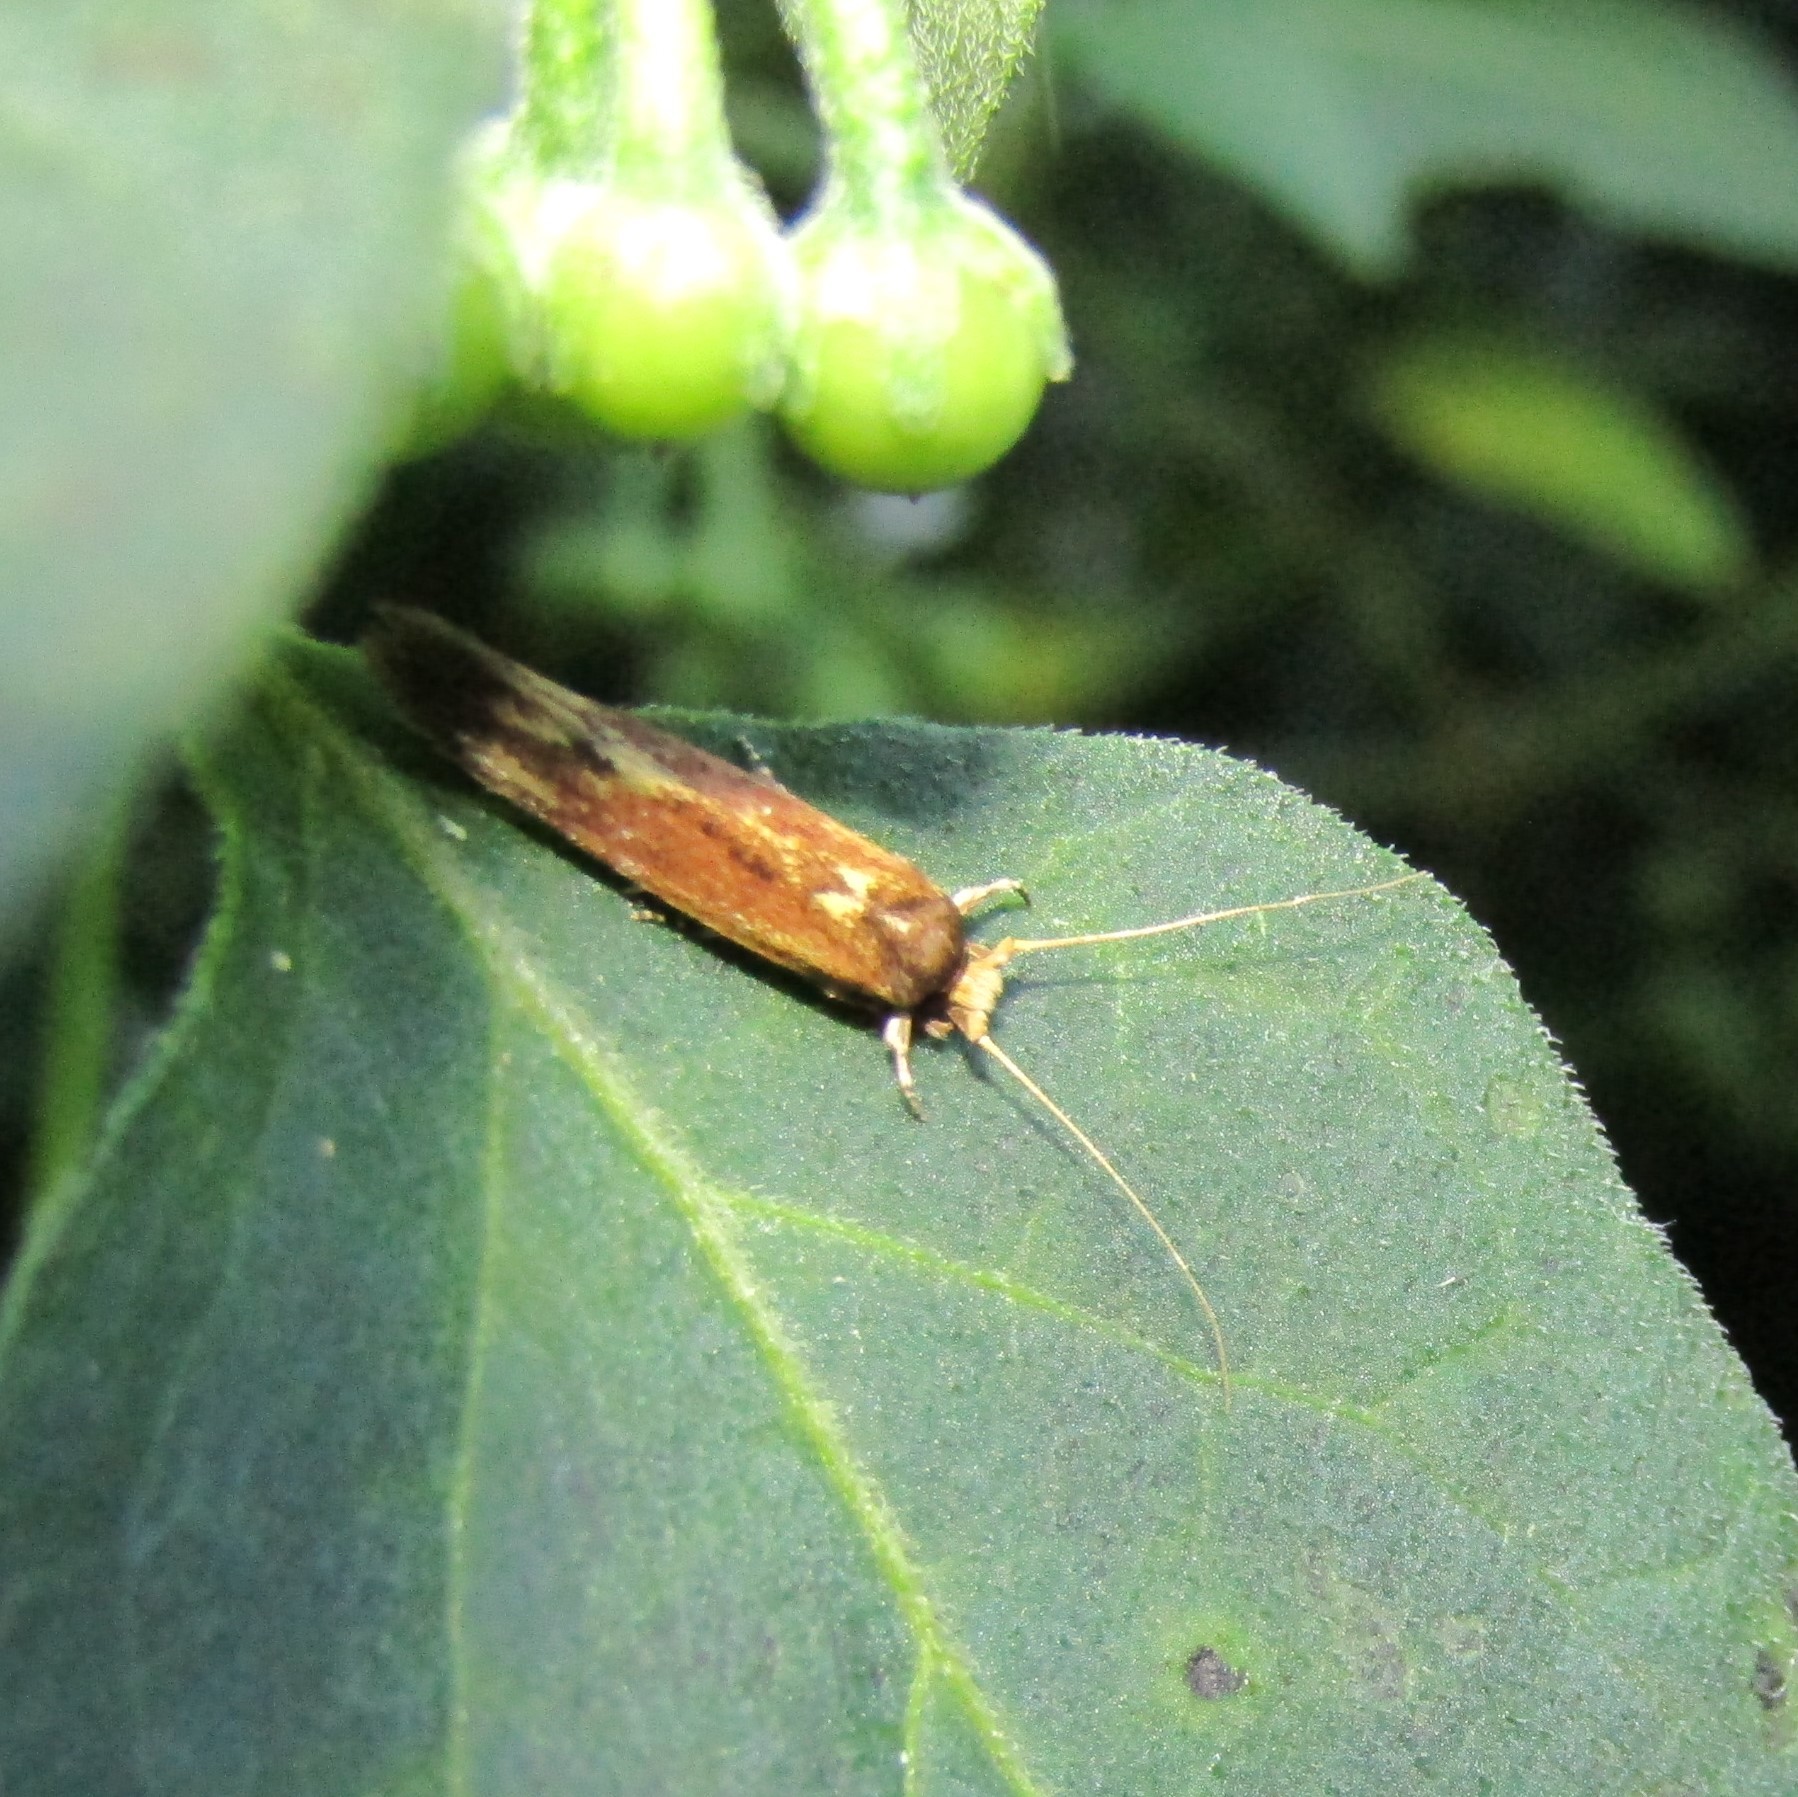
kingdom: Animalia
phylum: Arthropoda
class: Insecta
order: Lepidoptera
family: Tineidae
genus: Opogona
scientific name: Opogona omoscopa
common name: Moth
